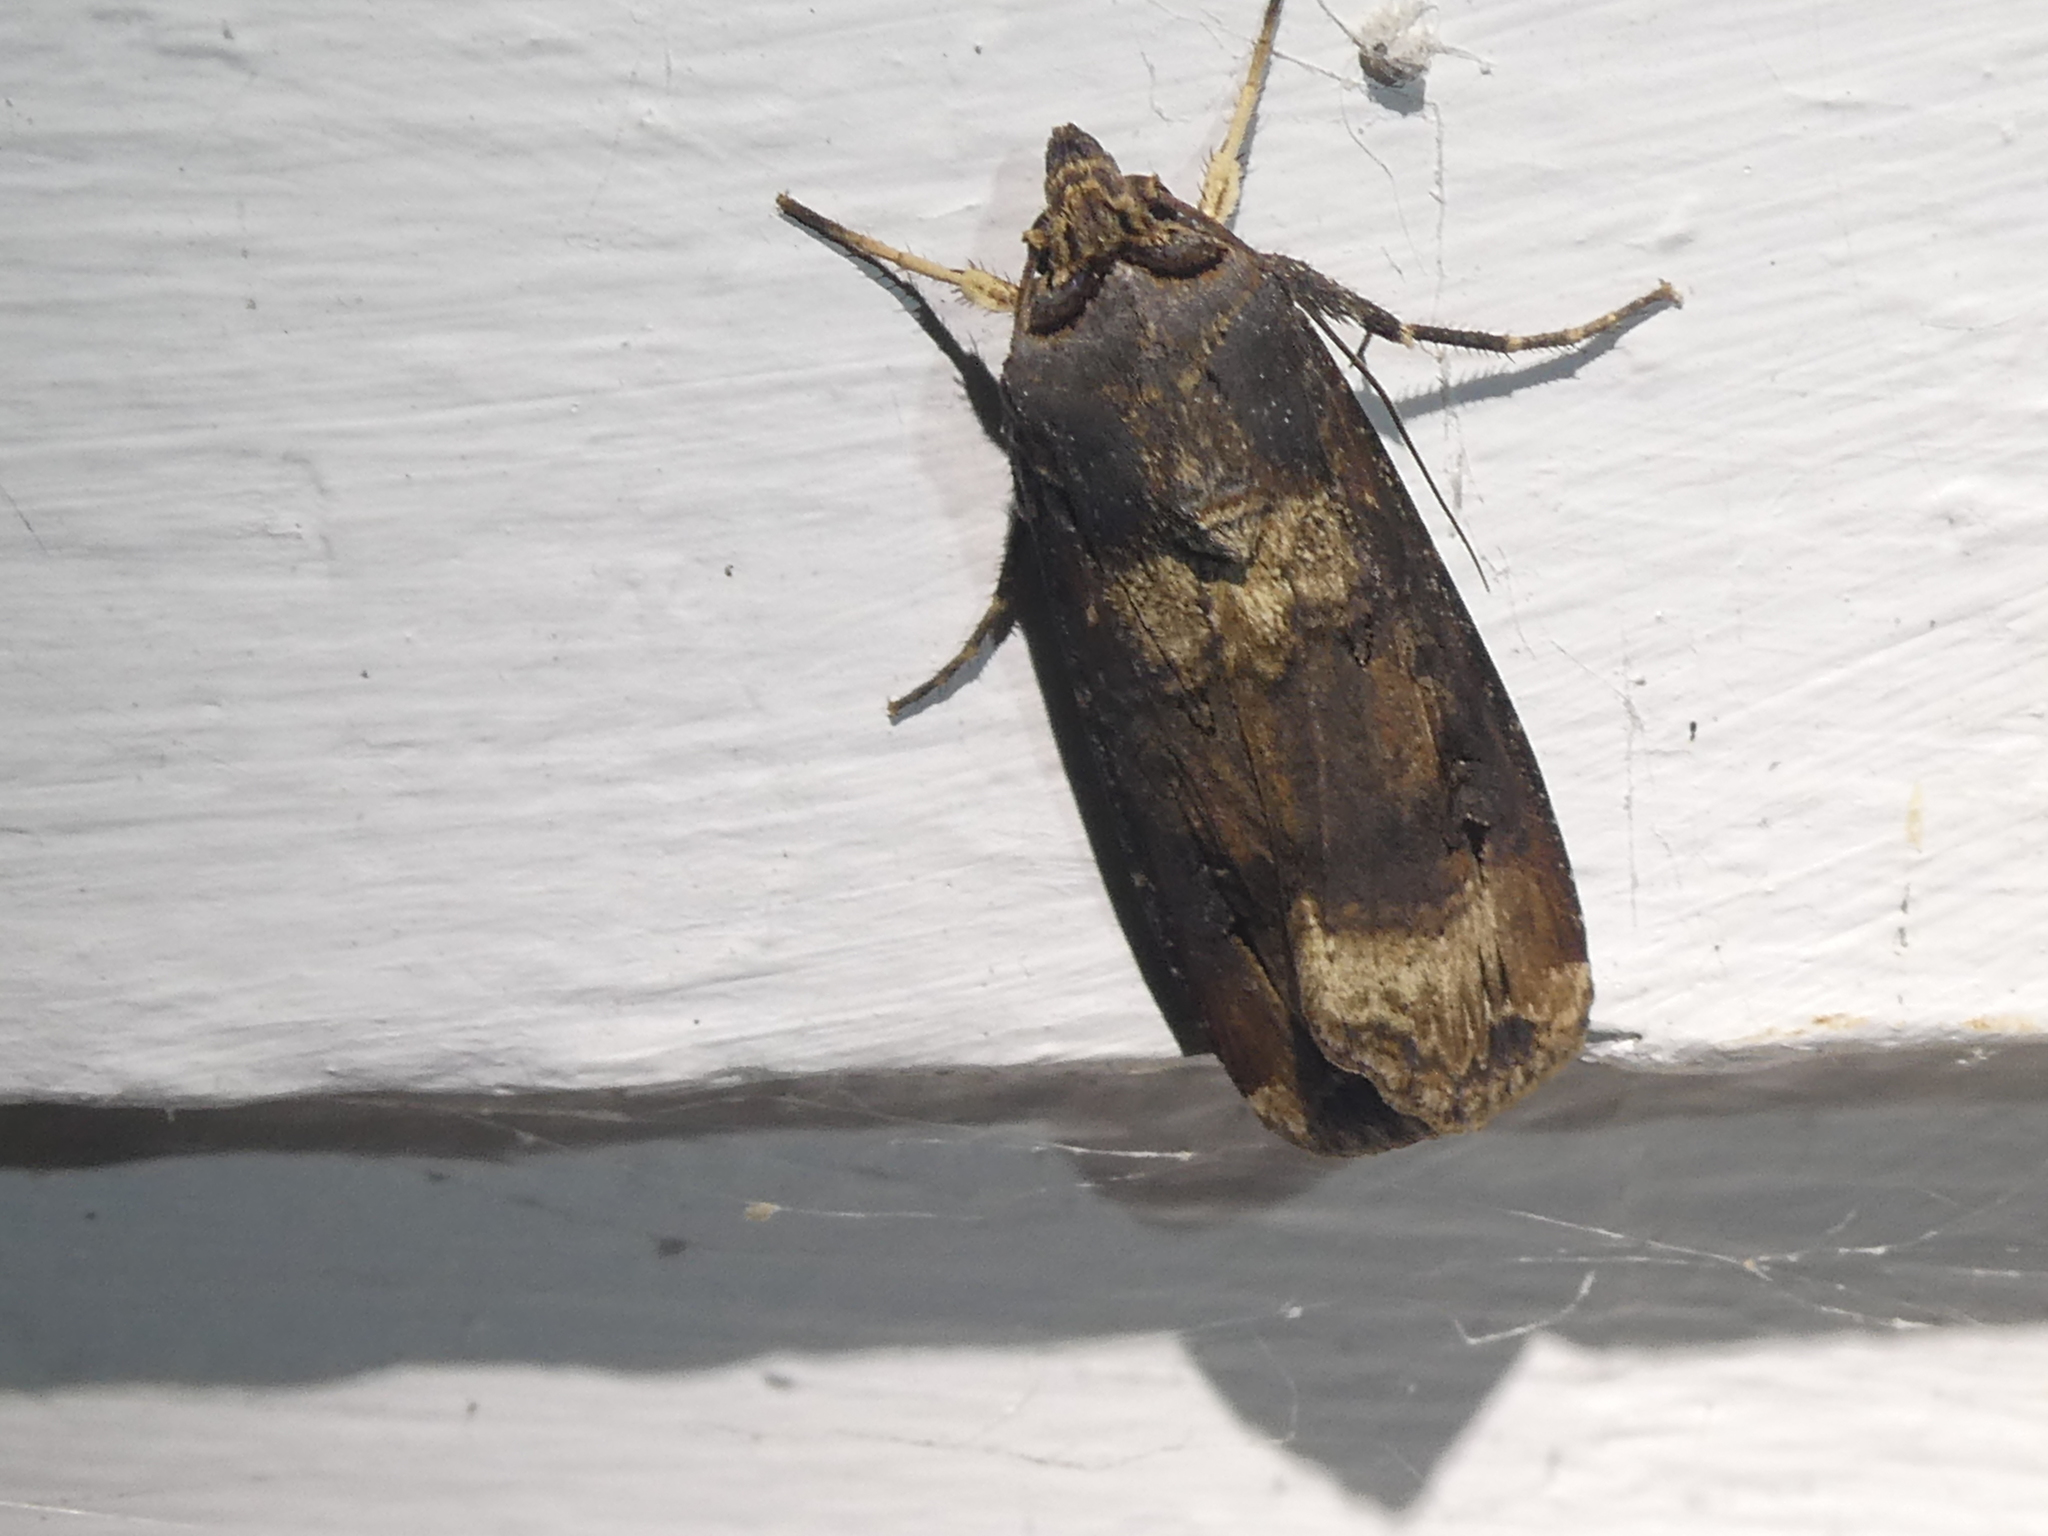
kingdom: Animalia
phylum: Arthropoda
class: Insecta
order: Lepidoptera
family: Noctuidae
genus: Agrotis
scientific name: Agrotis ipsilon
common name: Dark sword-grass
